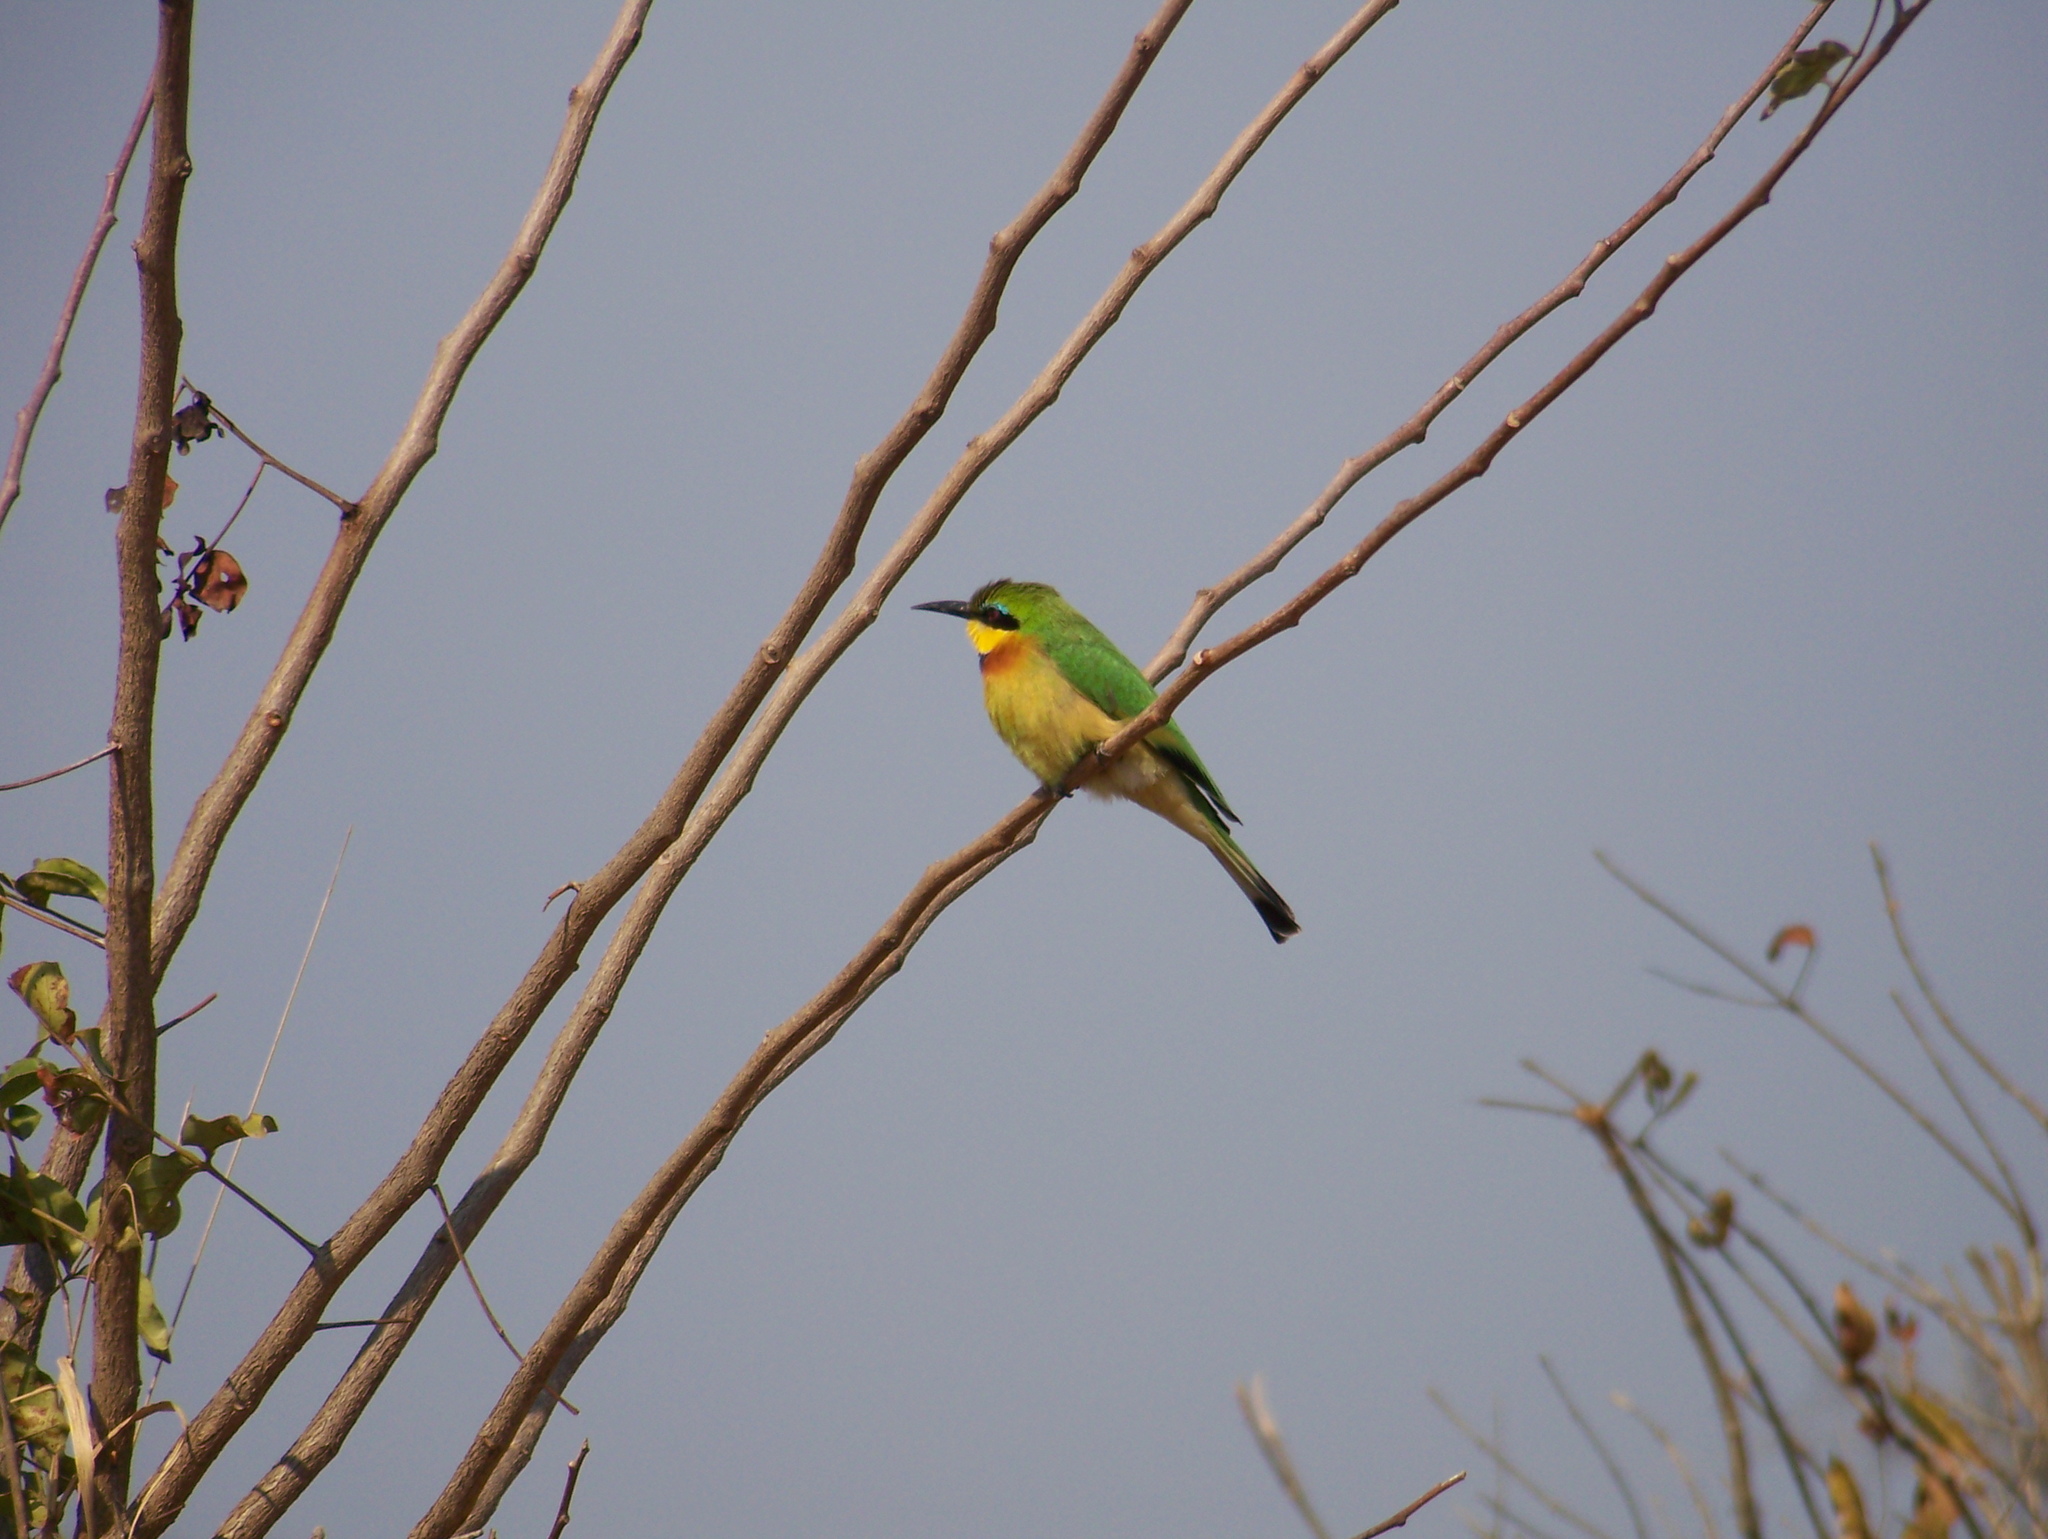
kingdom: Animalia
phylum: Chordata
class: Aves
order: Coraciiformes
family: Meropidae
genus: Merops
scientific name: Merops pusillus
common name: Little bee-eater
